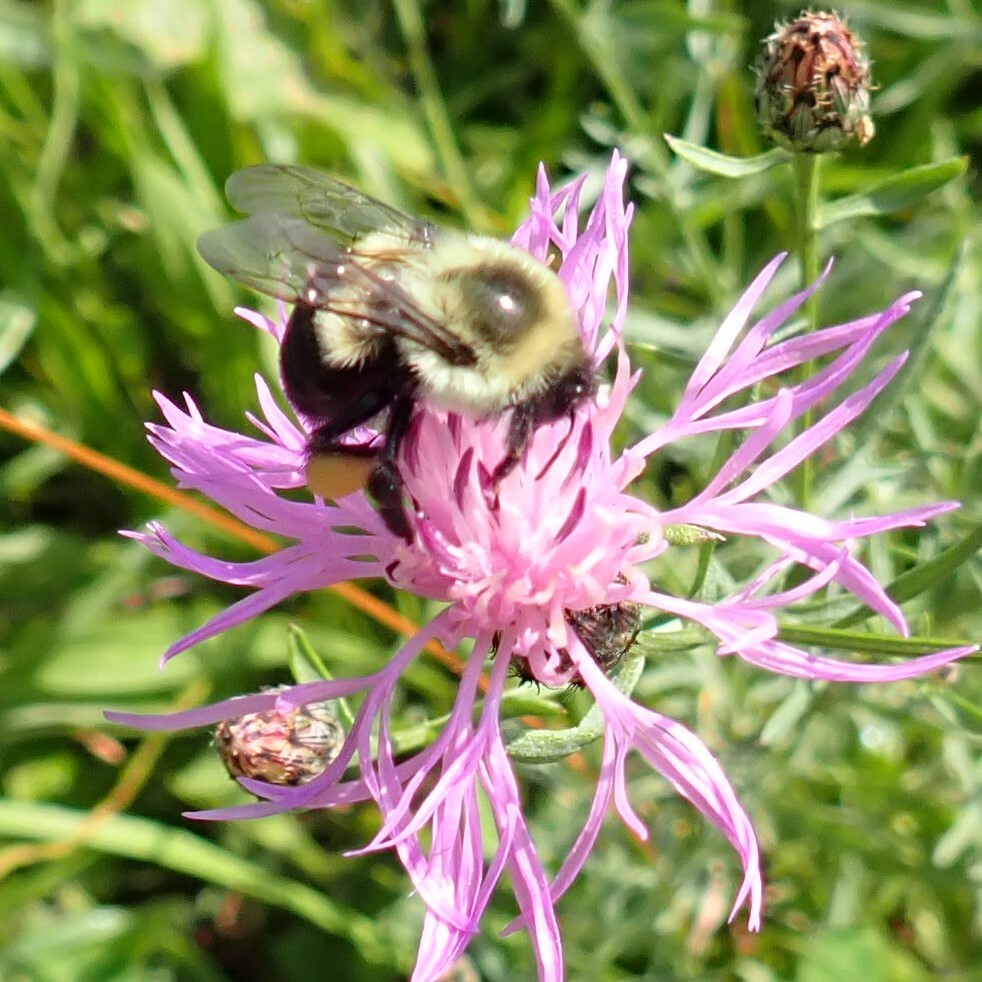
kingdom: Animalia
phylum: Arthropoda
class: Insecta
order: Hymenoptera
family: Apidae
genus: Bombus
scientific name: Bombus impatiens
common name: Common eastern bumble bee
